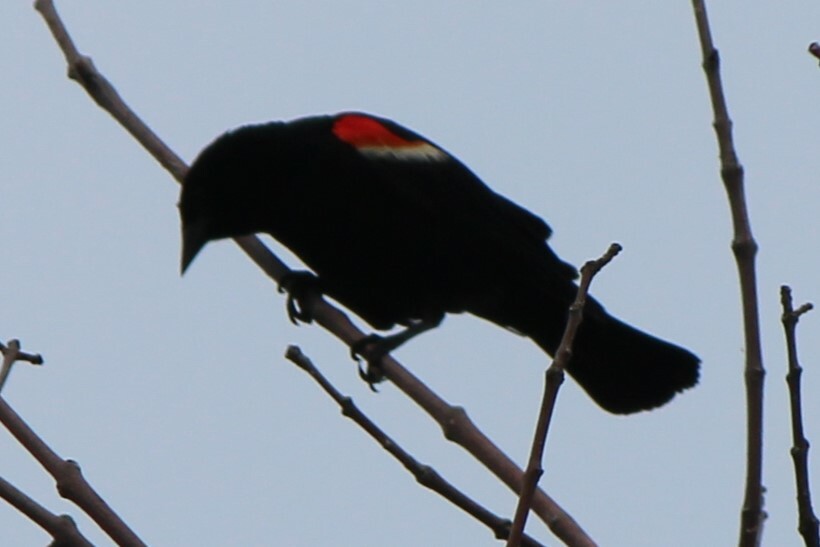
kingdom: Animalia
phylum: Chordata
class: Aves
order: Passeriformes
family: Icteridae
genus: Agelaius
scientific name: Agelaius phoeniceus
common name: Red-winged blackbird
